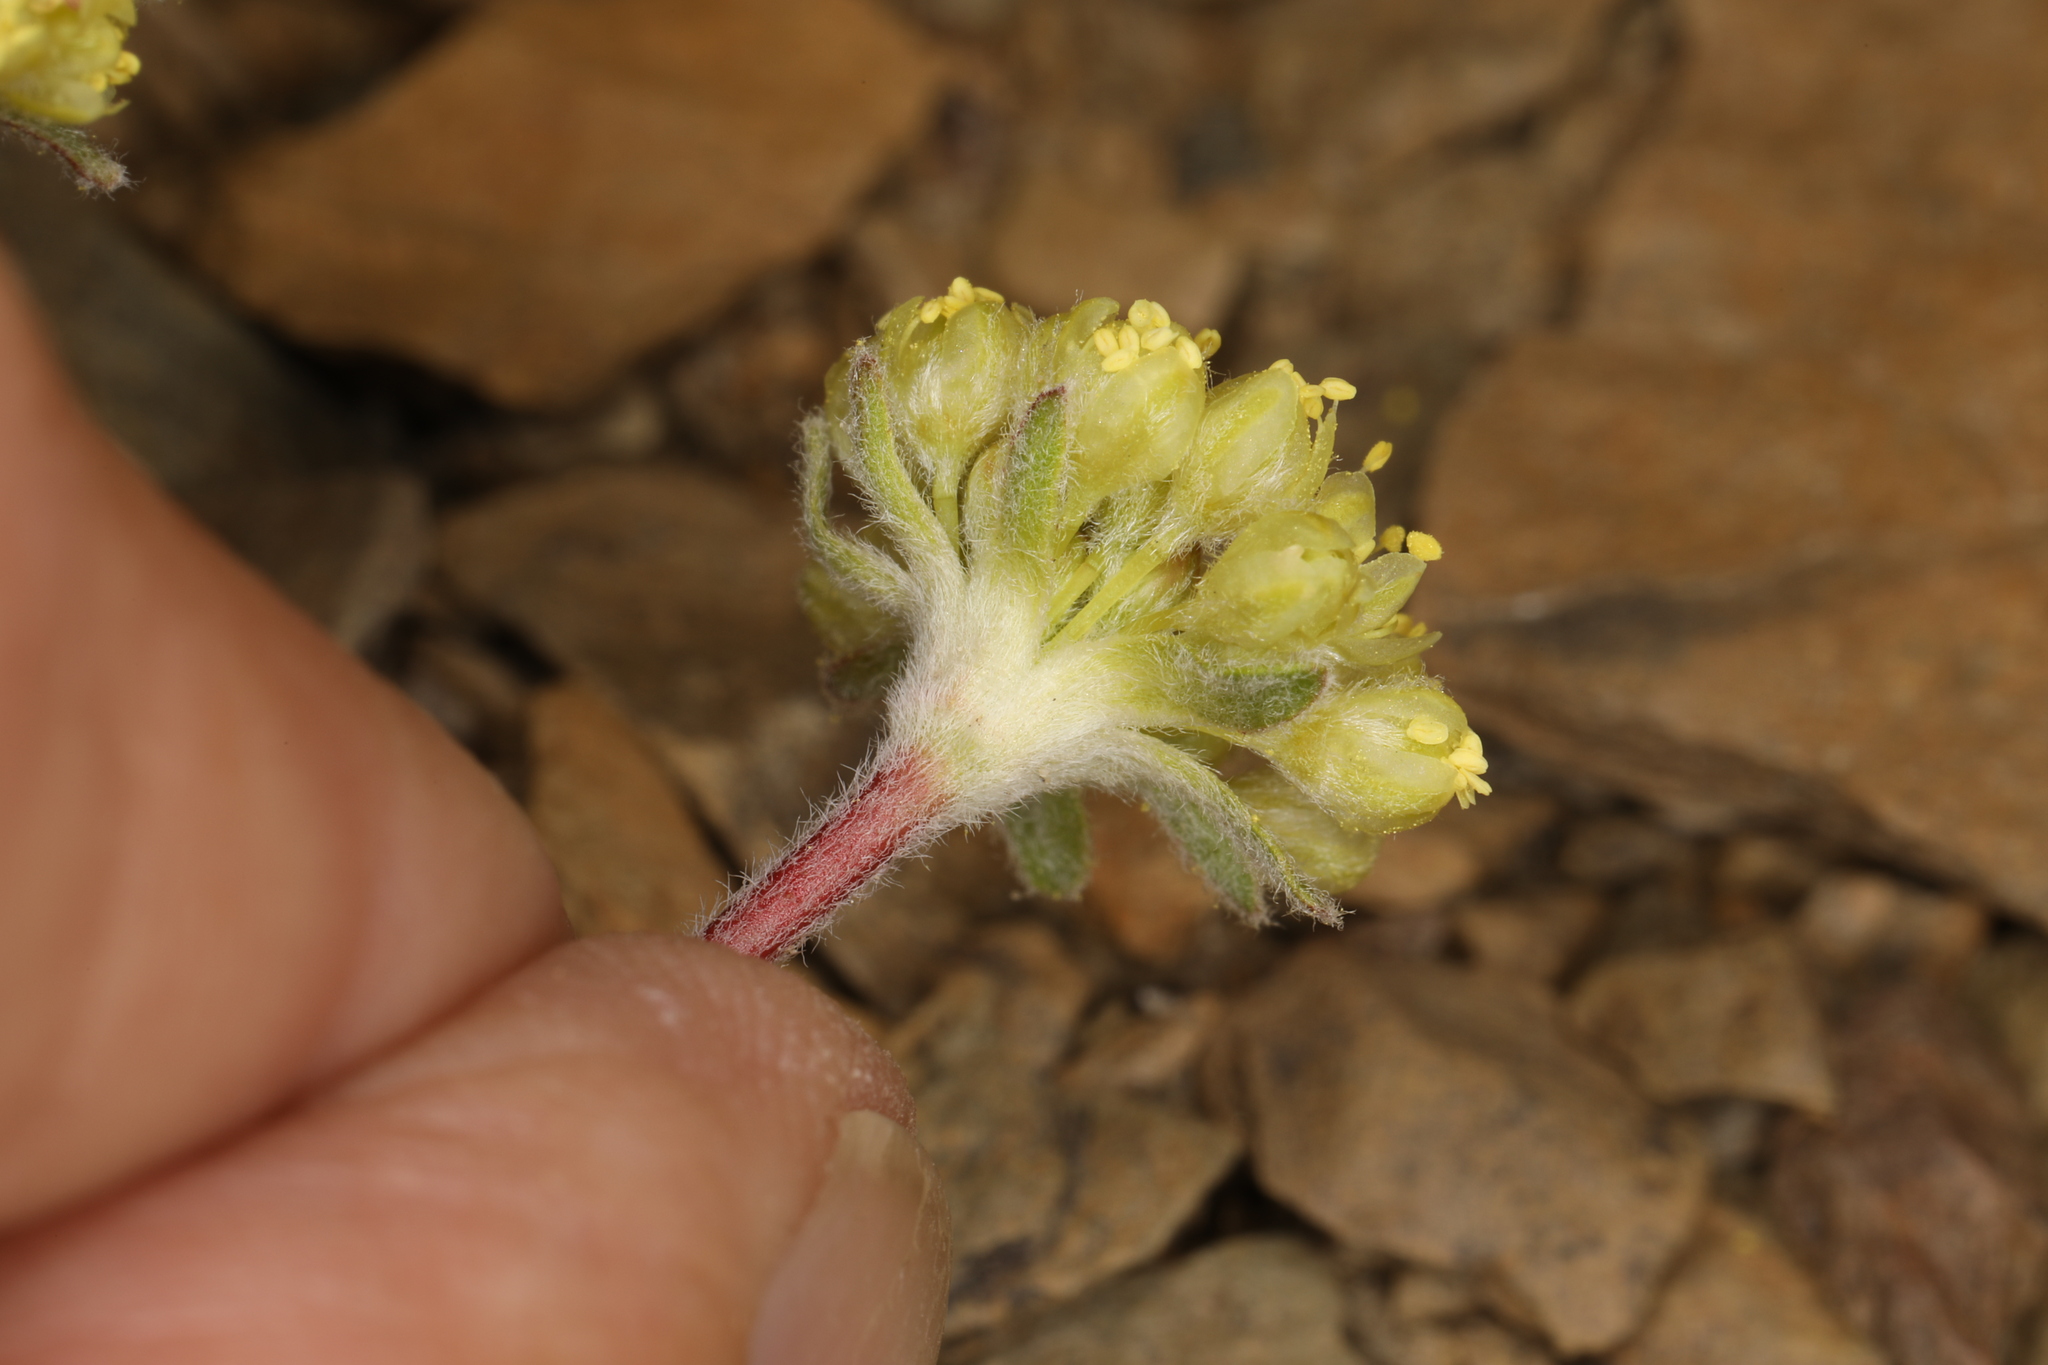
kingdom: Plantae
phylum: Tracheophyta
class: Magnoliopsida
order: Caryophyllales
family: Polygonaceae
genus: Eriogonum
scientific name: Eriogonum caespitosum
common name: Matted wild buckwheat
